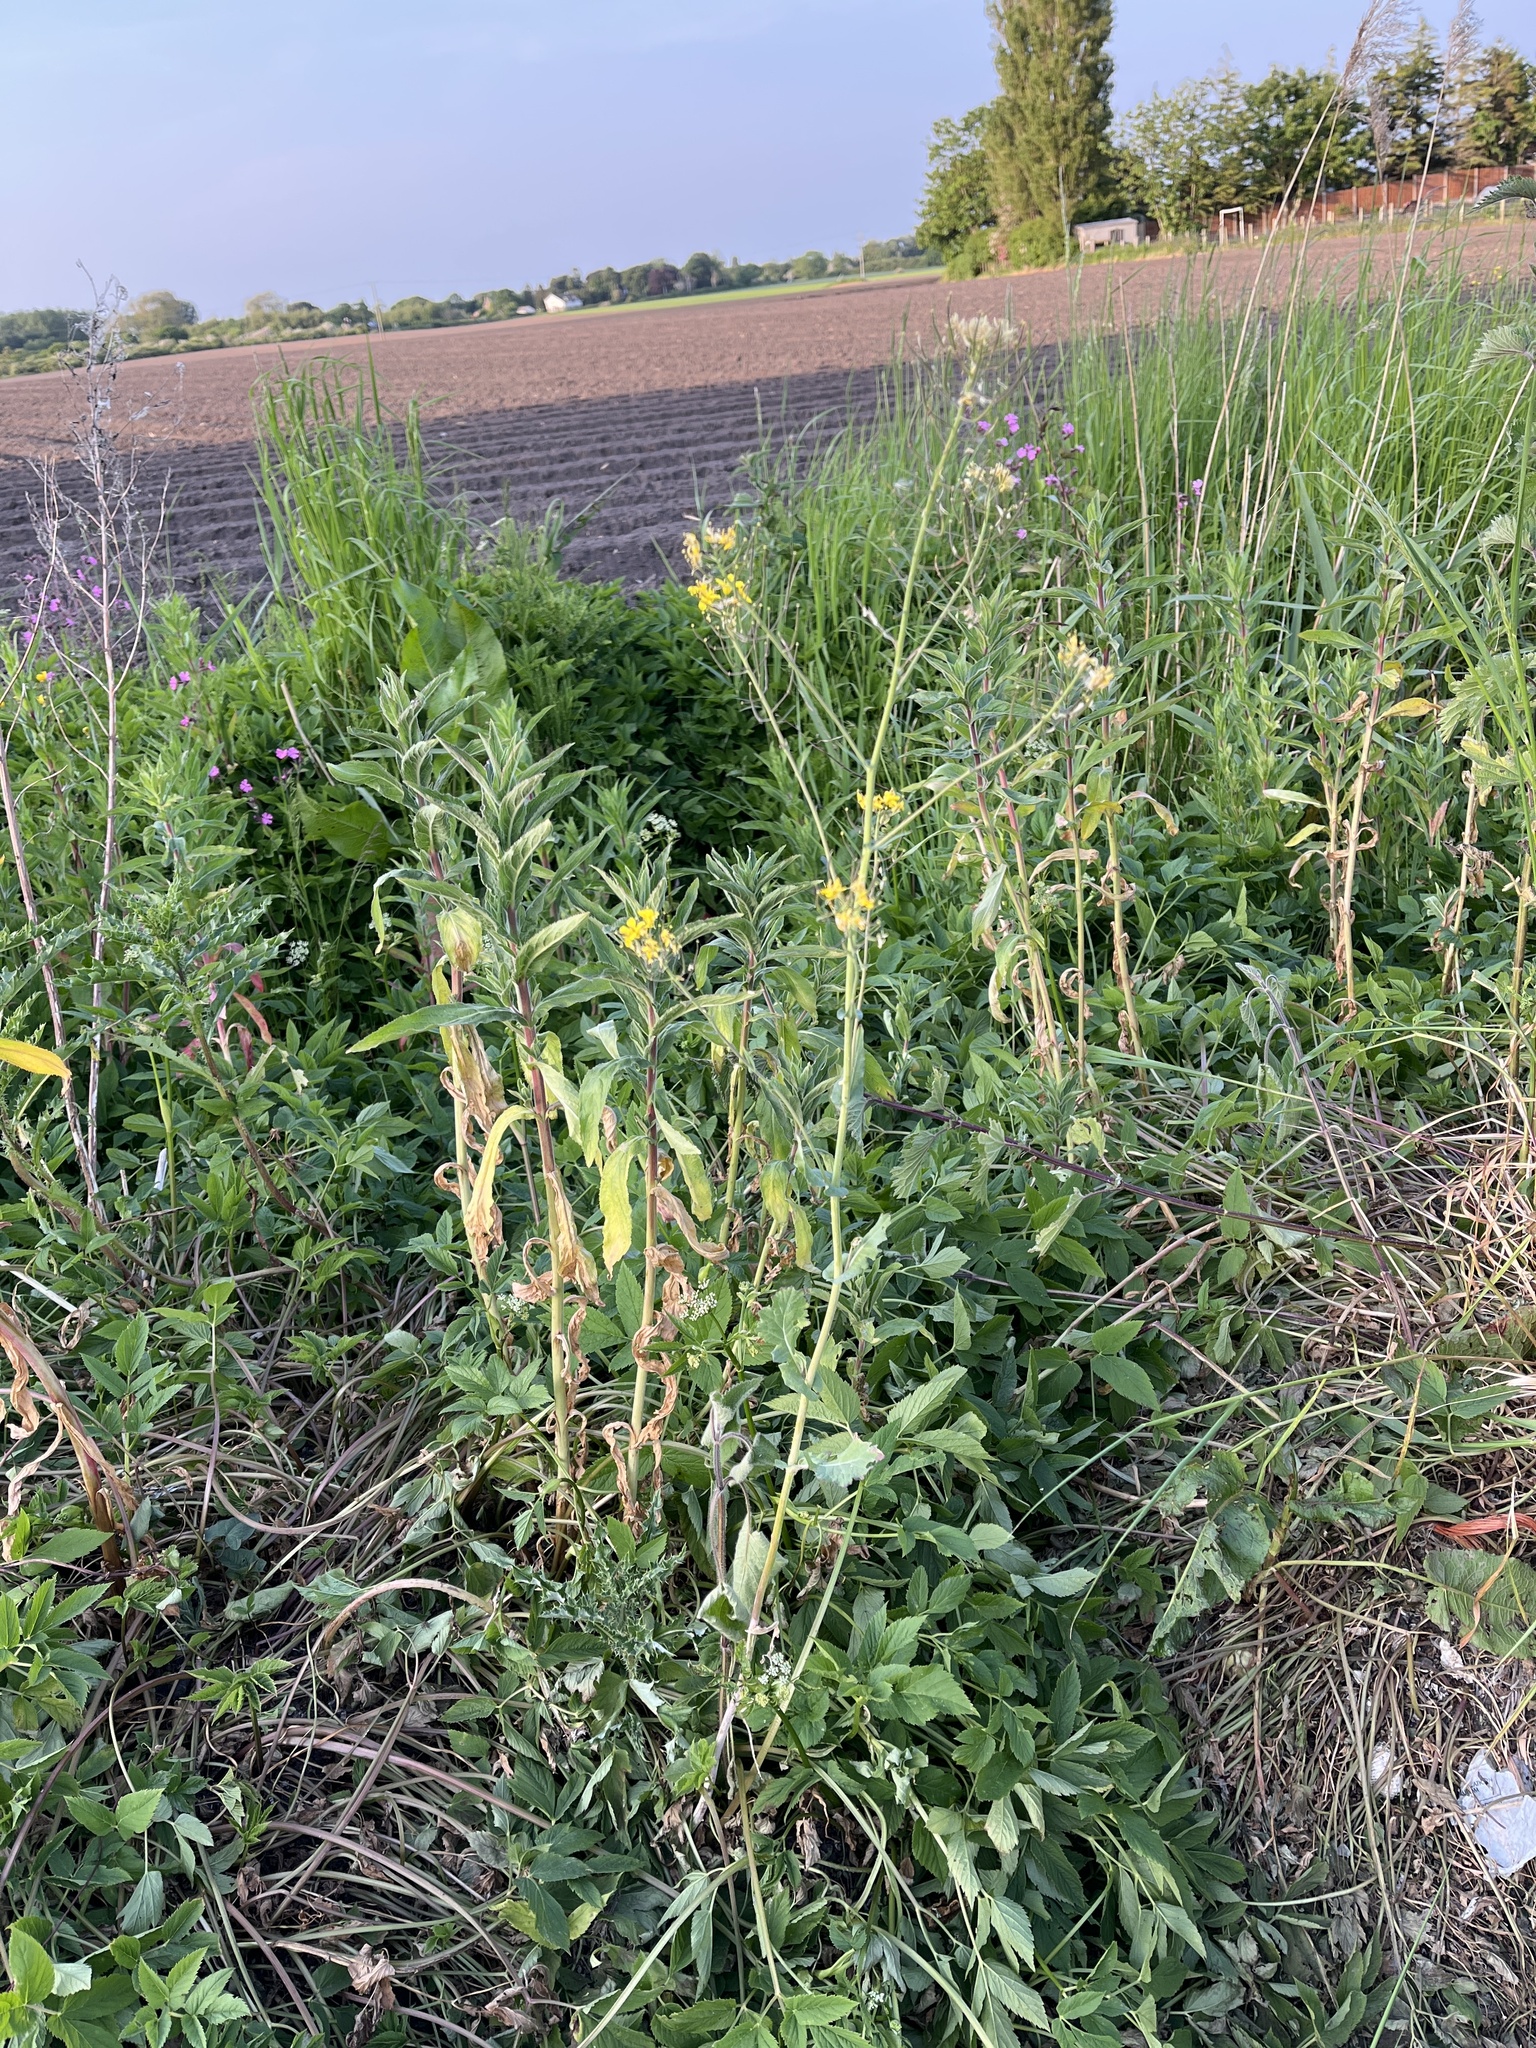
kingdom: Plantae
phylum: Tracheophyta
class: Magnoliopsida
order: Brassicales
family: Brassicaceae
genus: Brassica
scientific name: Brassica rapa
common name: Field mustard
